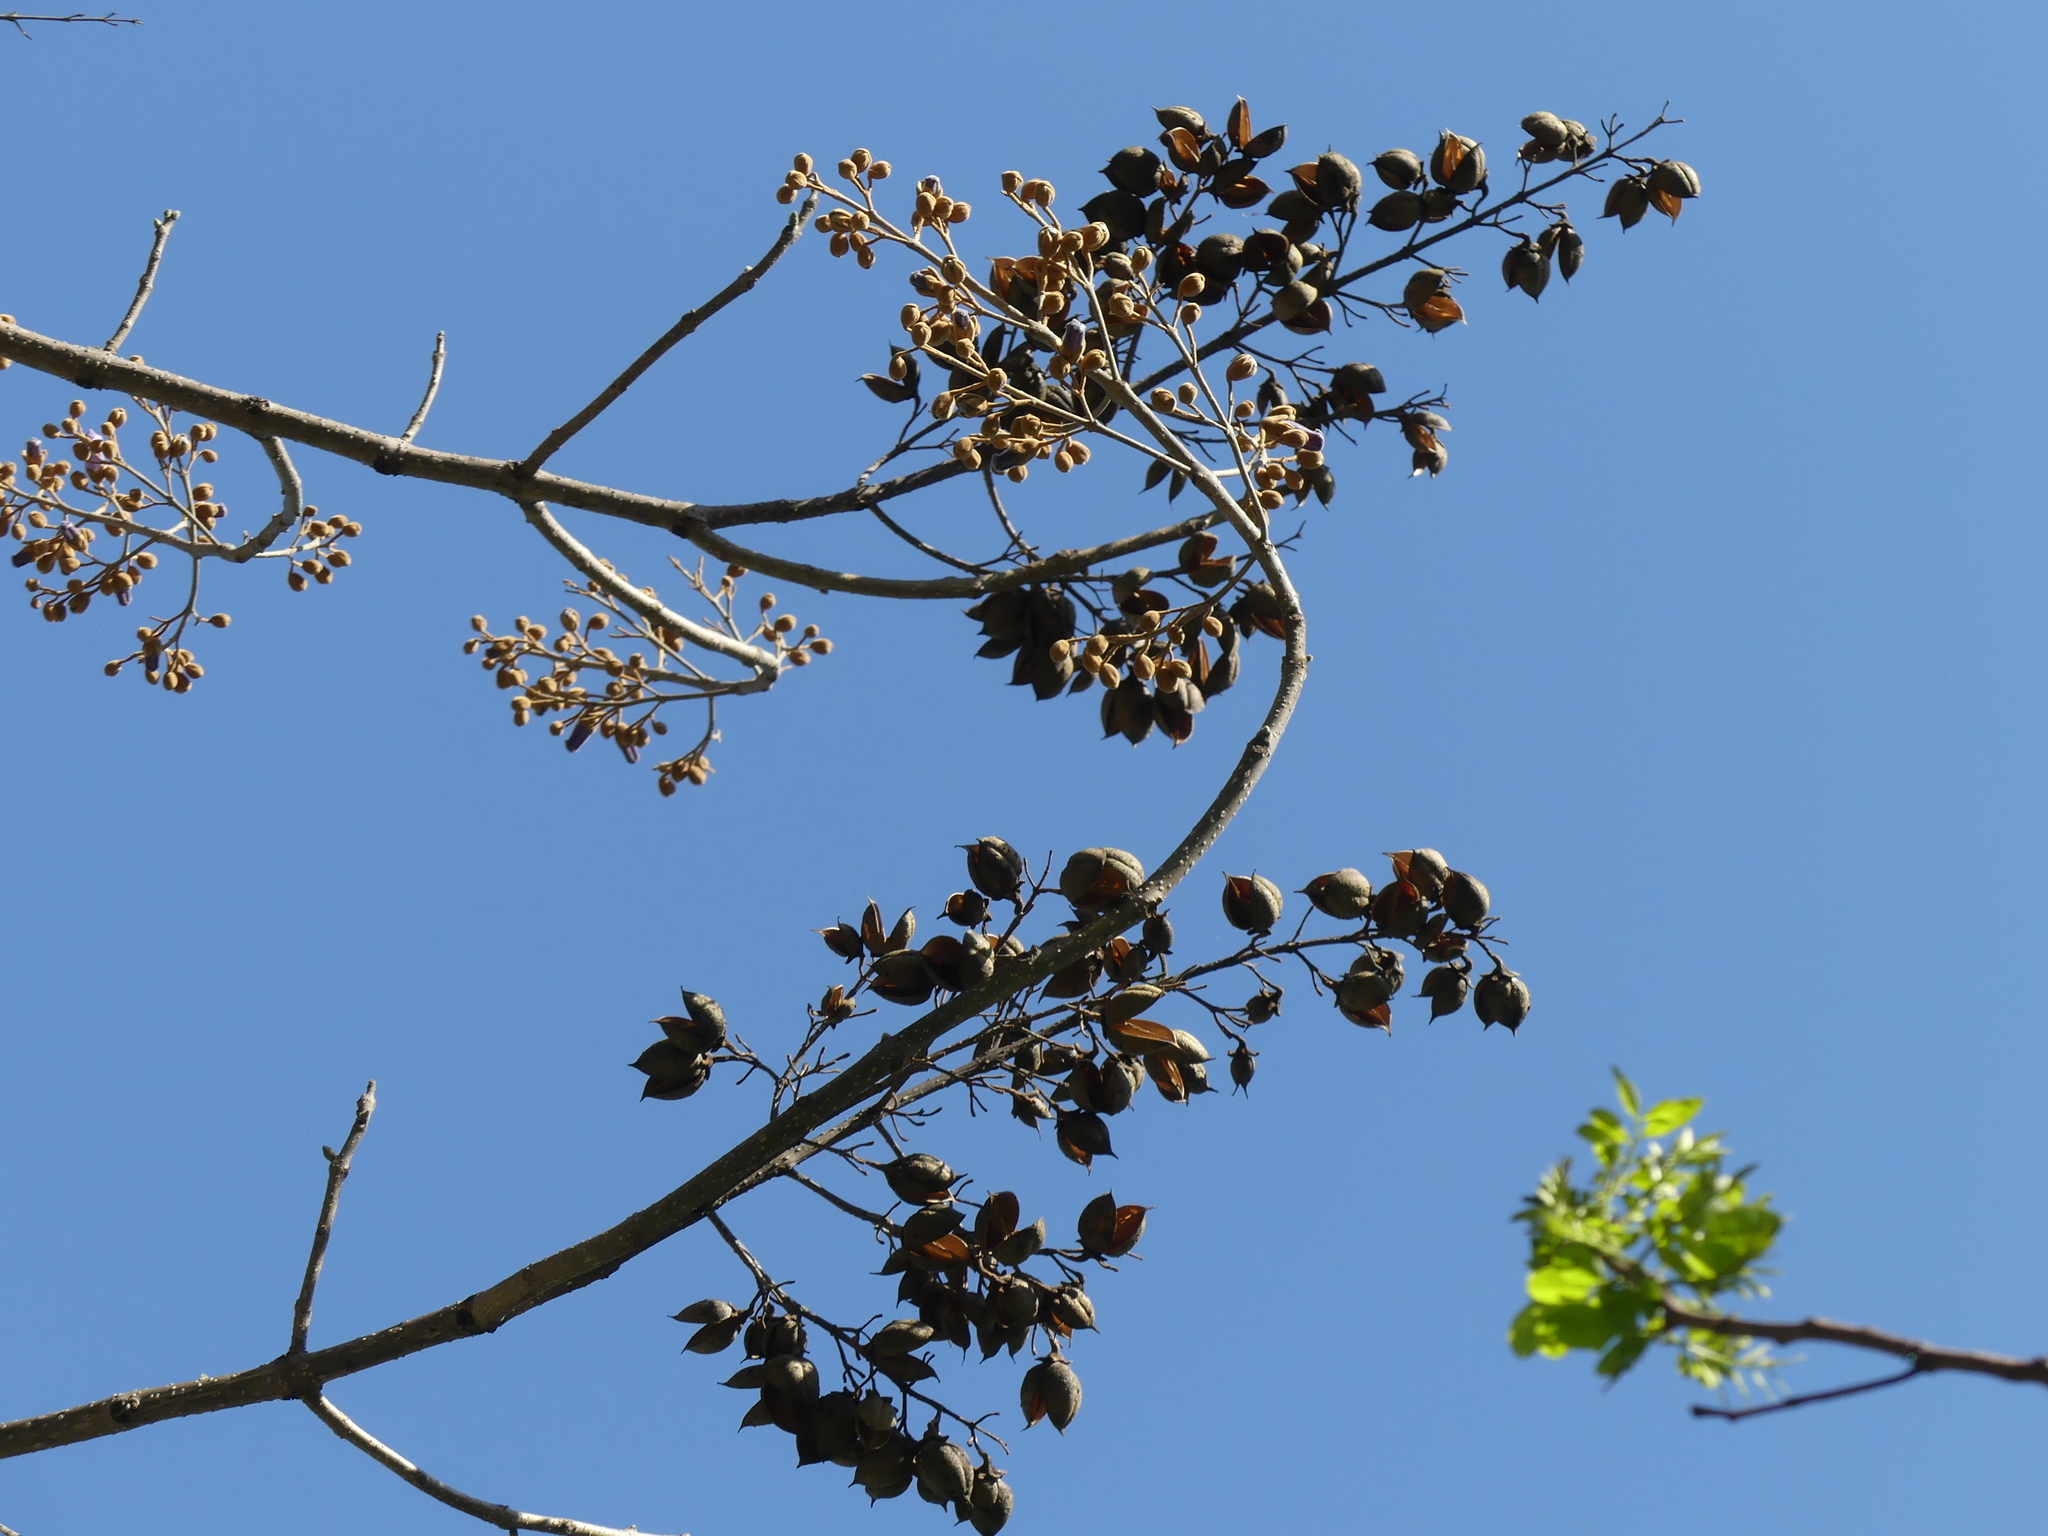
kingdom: Plantae
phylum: Tracheophyta
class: Magnoliopsida
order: Lamiales
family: Paulowniaceae
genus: Paulownia
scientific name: Paulownia tomentosa
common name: Foxglove-tree
